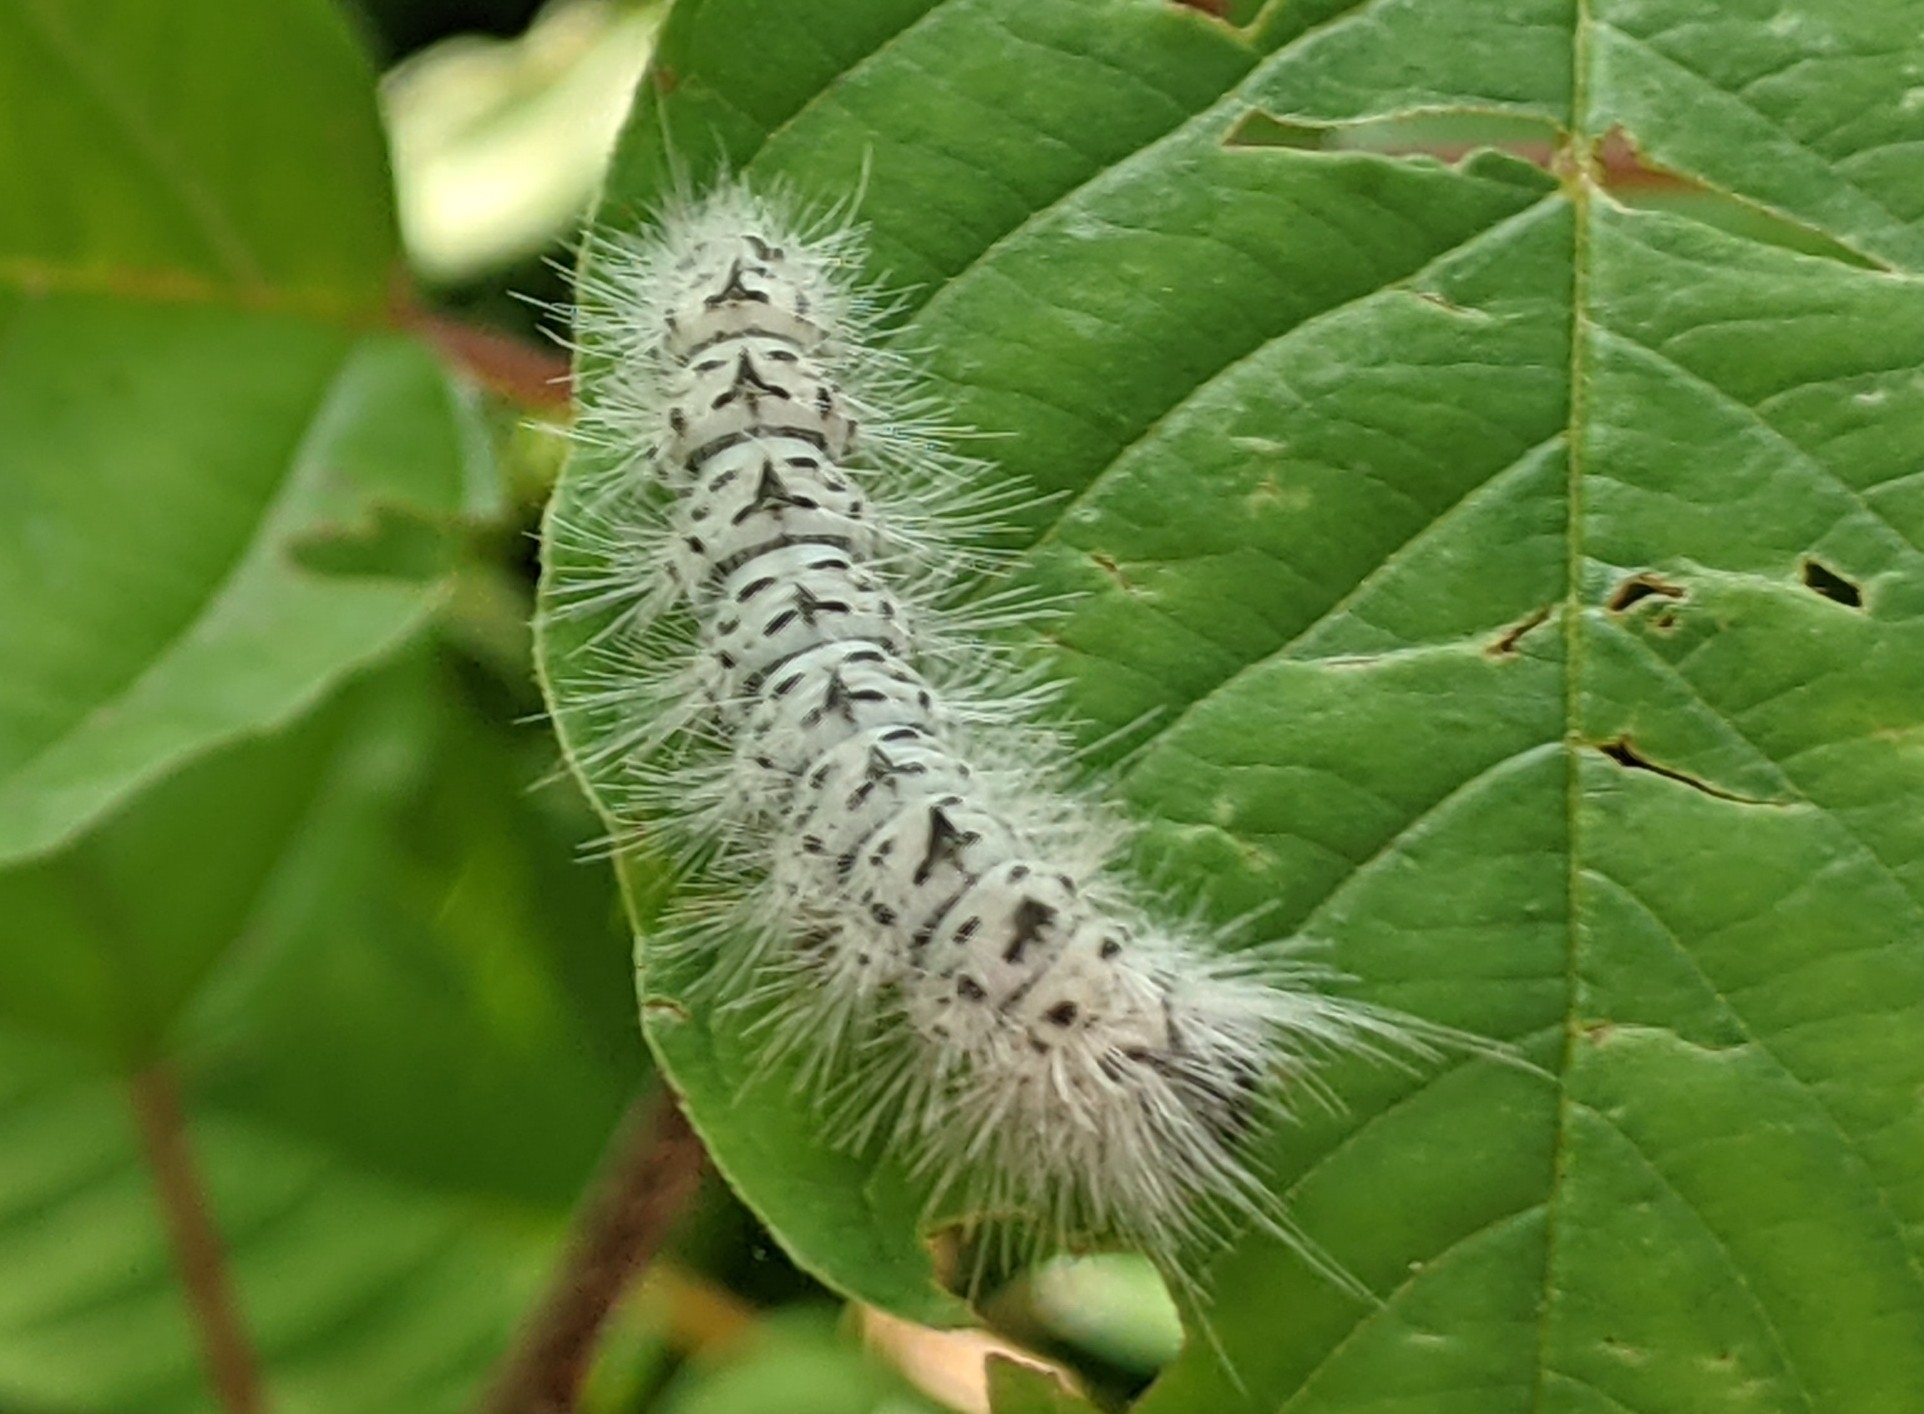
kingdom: Animalia
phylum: Arthropoda
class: Insecta
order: Lepidoptera
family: Erebidae
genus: Lophocampa
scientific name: Lophocampa caryae
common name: Hickory tussock moth
